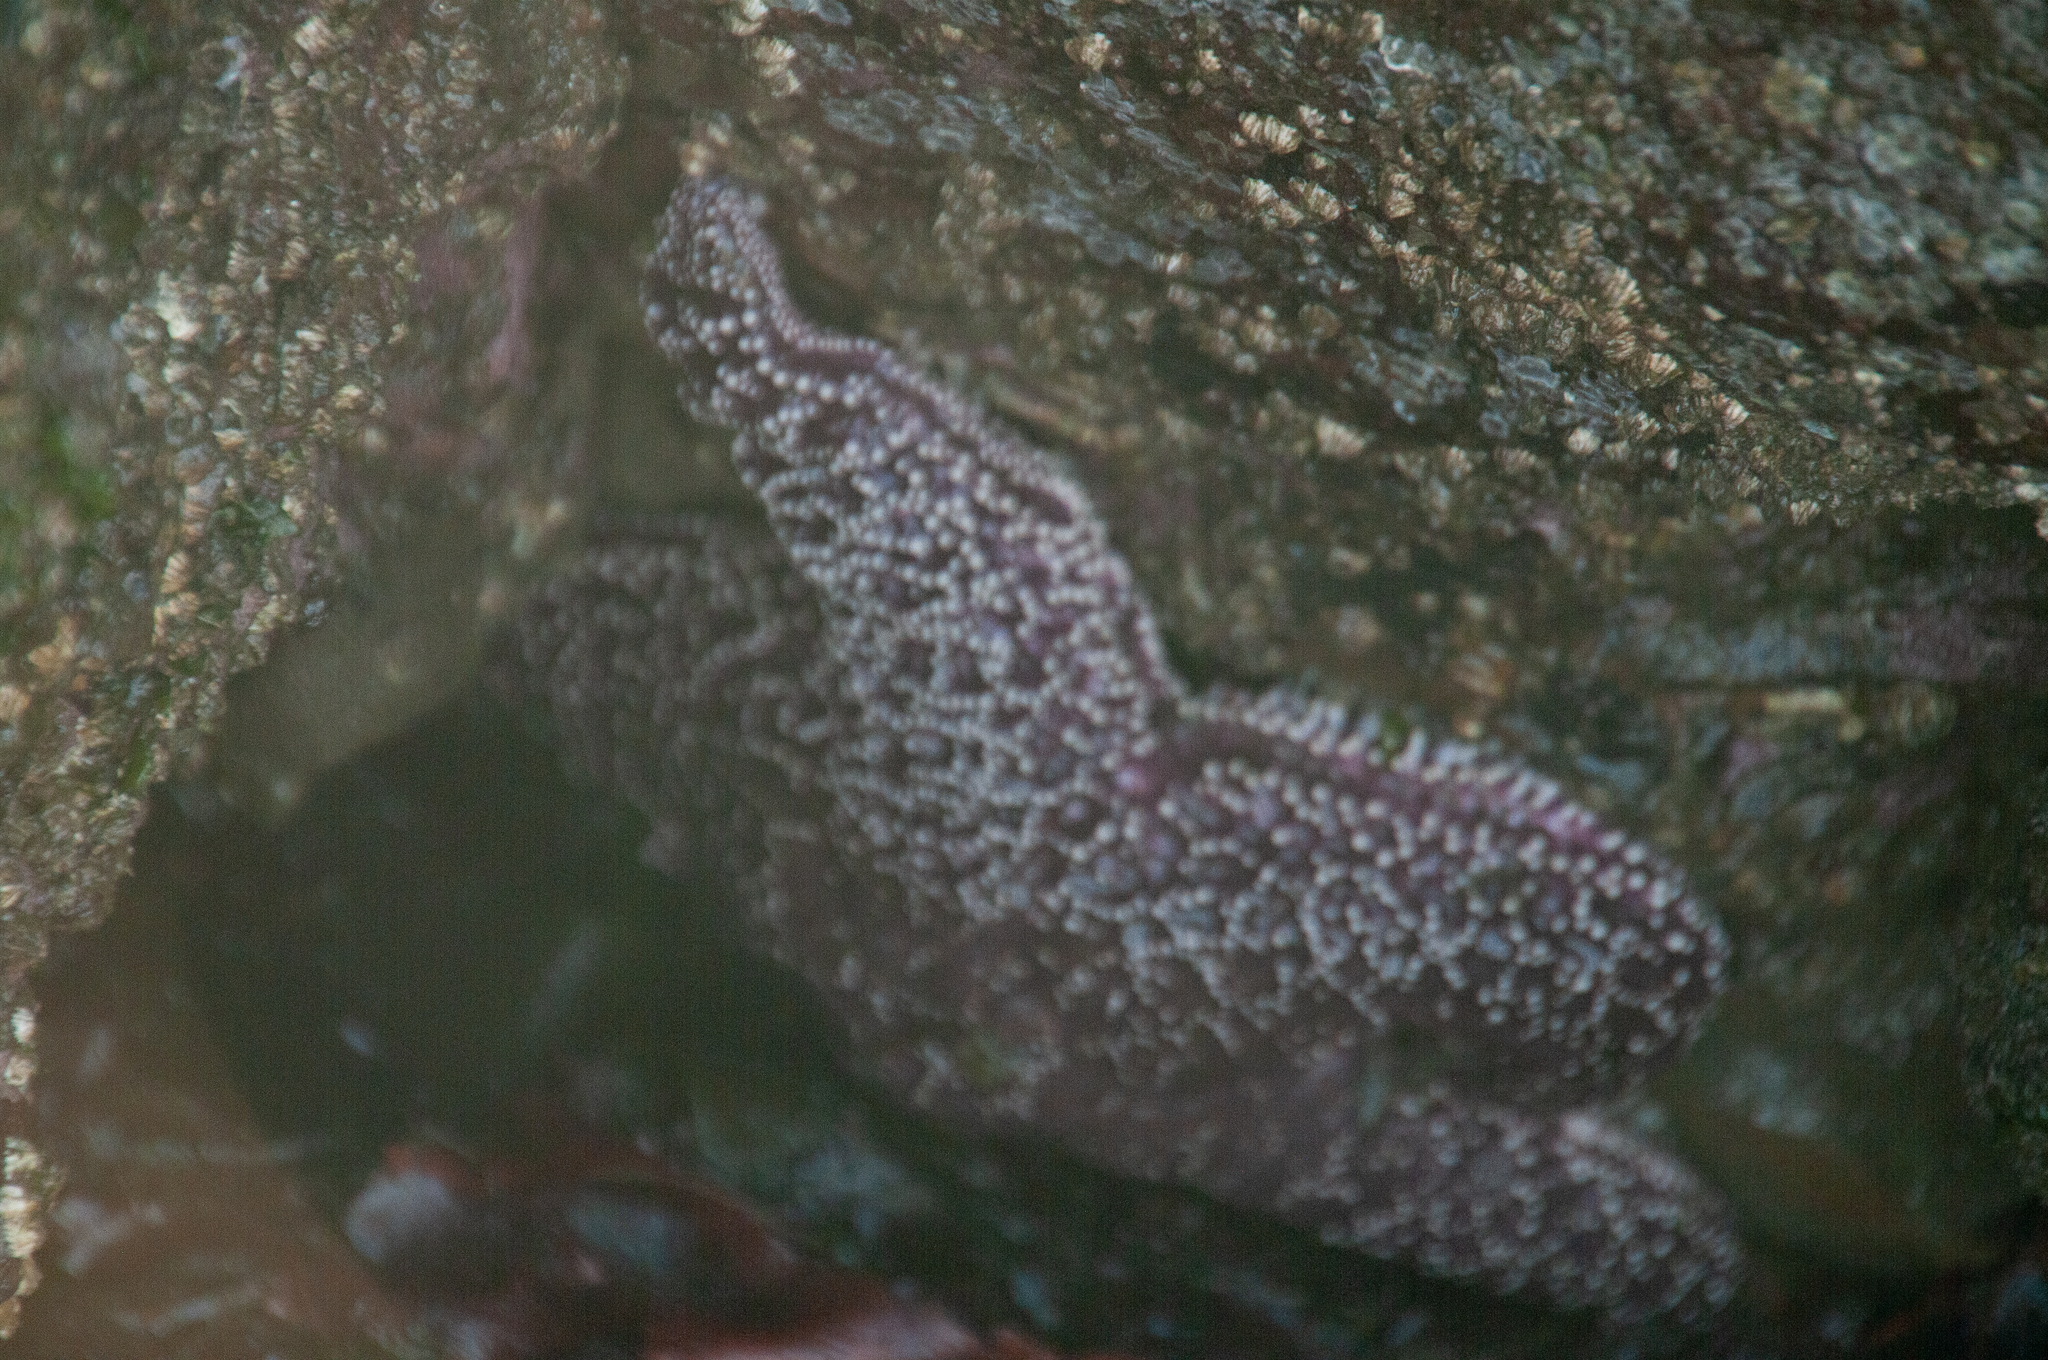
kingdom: Animalia
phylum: Echinodermata
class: Asteroidea
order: Forcipulatida
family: Asteriidae
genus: Pisaster
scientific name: Pisaster ochraceus
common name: Ochre stars
